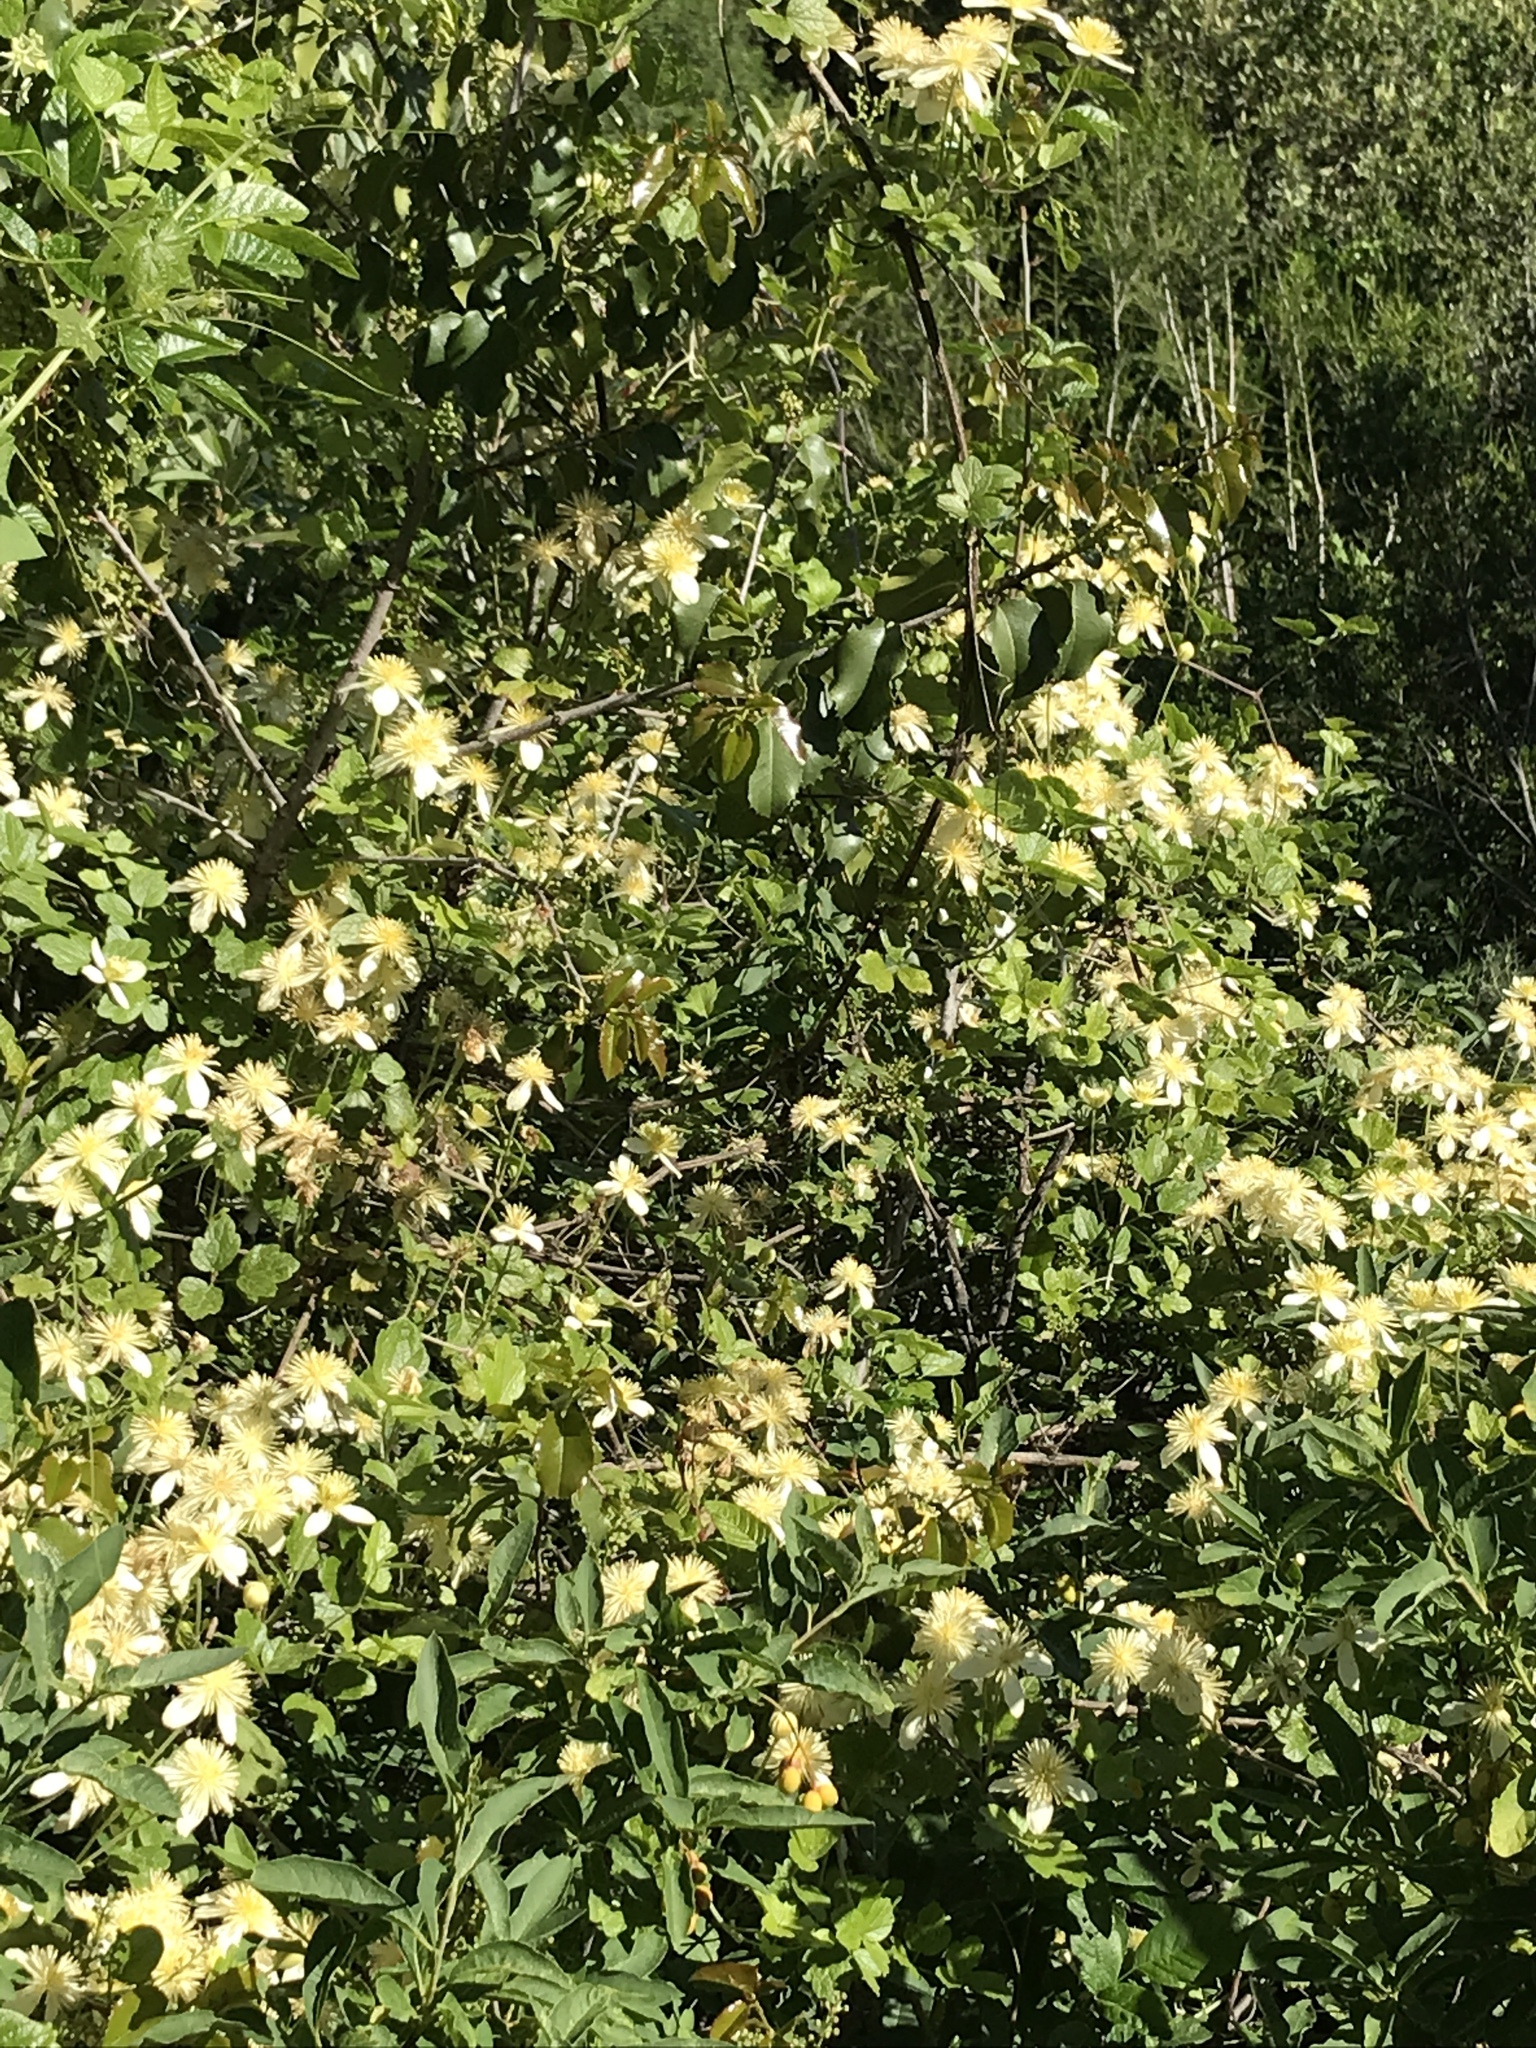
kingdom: Plantae
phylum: Tracheophyta
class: Magnoliopsida
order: Ranunculales
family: Ranunculaceae
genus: Clematis
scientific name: Clematis lasiantha
